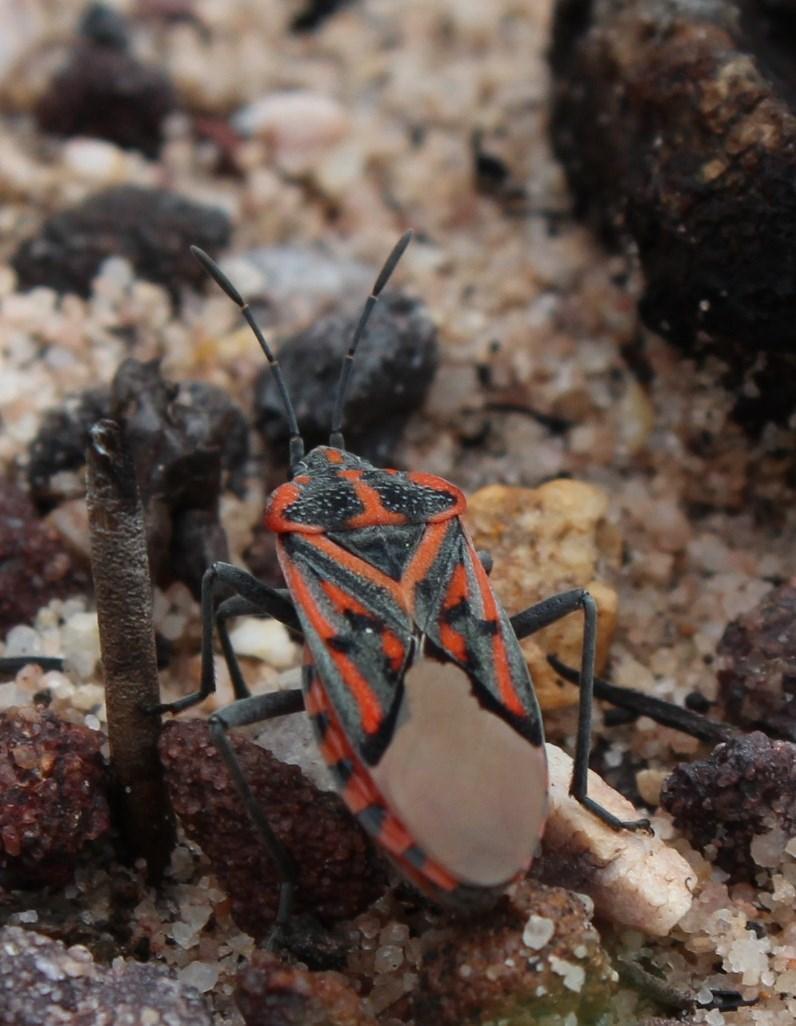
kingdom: Animalia
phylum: Arthropoda
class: Insecta
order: Hemiptera
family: Lygaeidae
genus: Spilostethus
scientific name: Spilostethus crudelis
